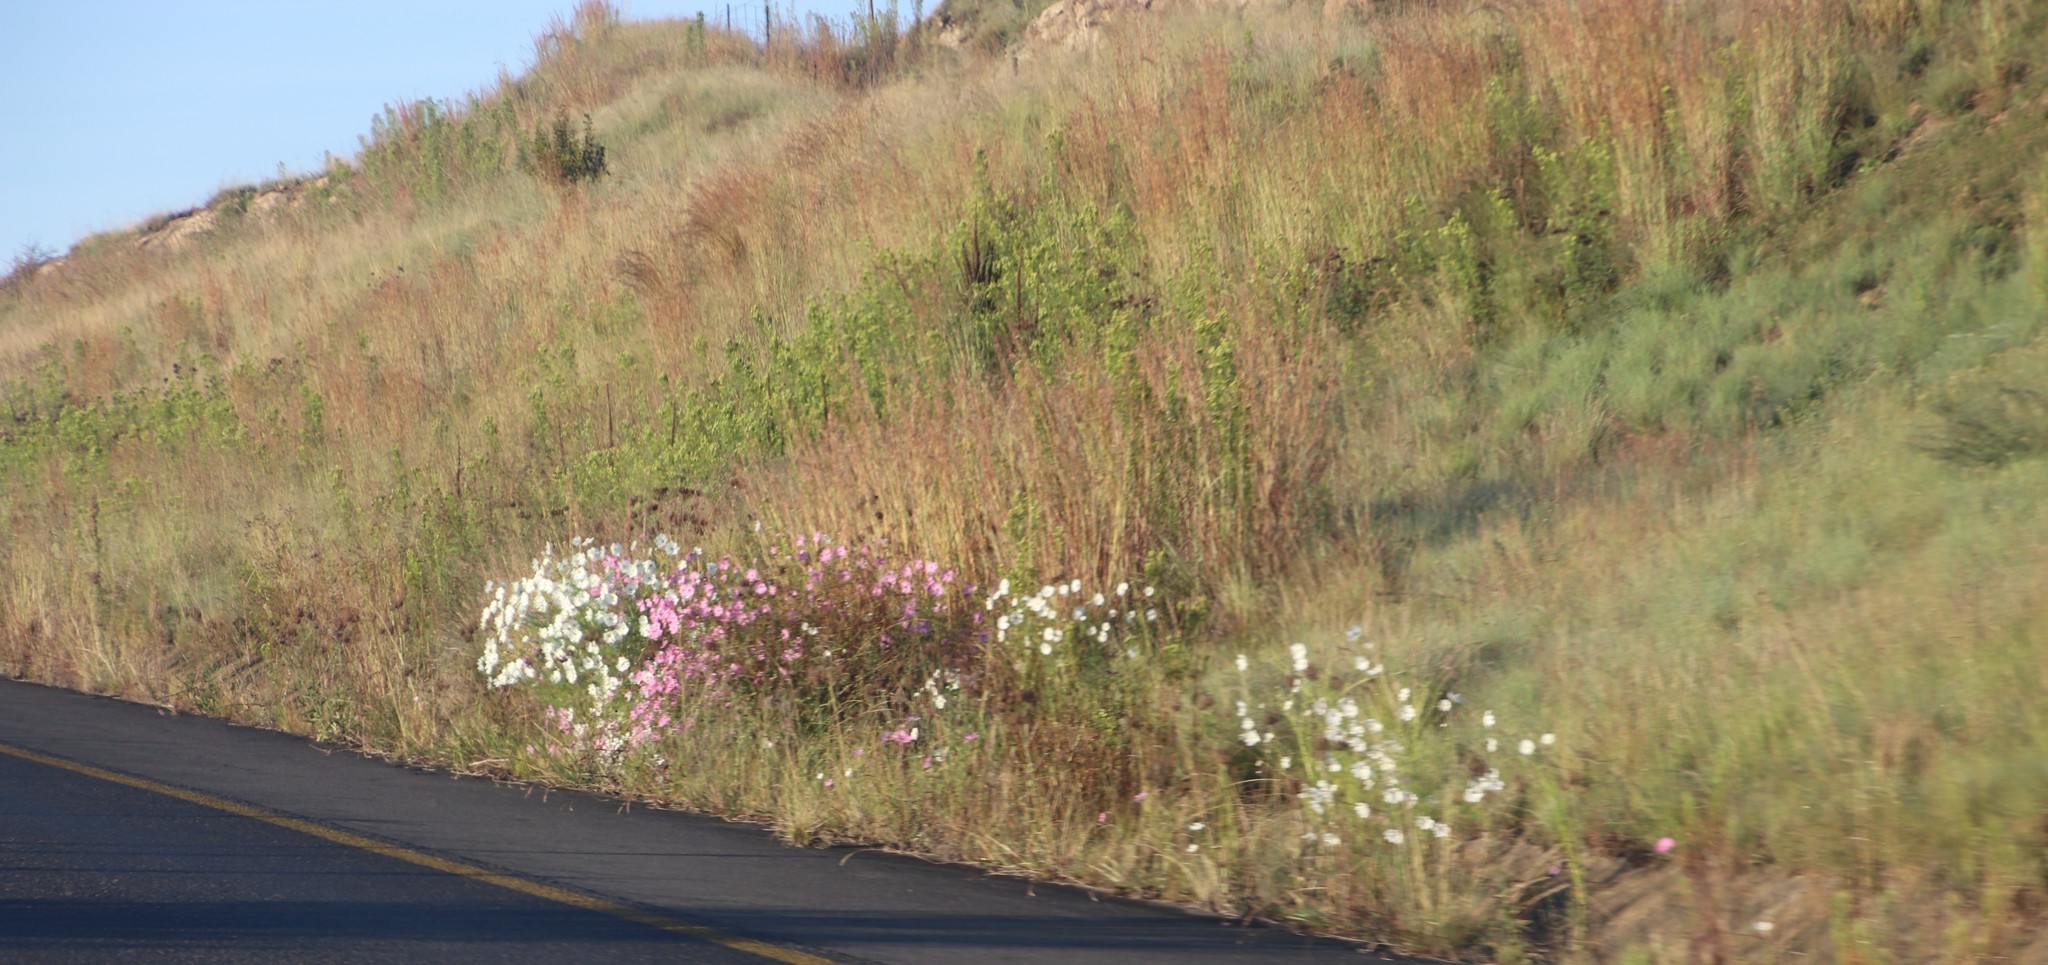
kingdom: Plantae
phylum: Tracheophyta
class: Magnoliopsida
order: Asterales
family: Asteraceae
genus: Cosmos
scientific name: Cosmos bipinnatus
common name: Garden cosmos
